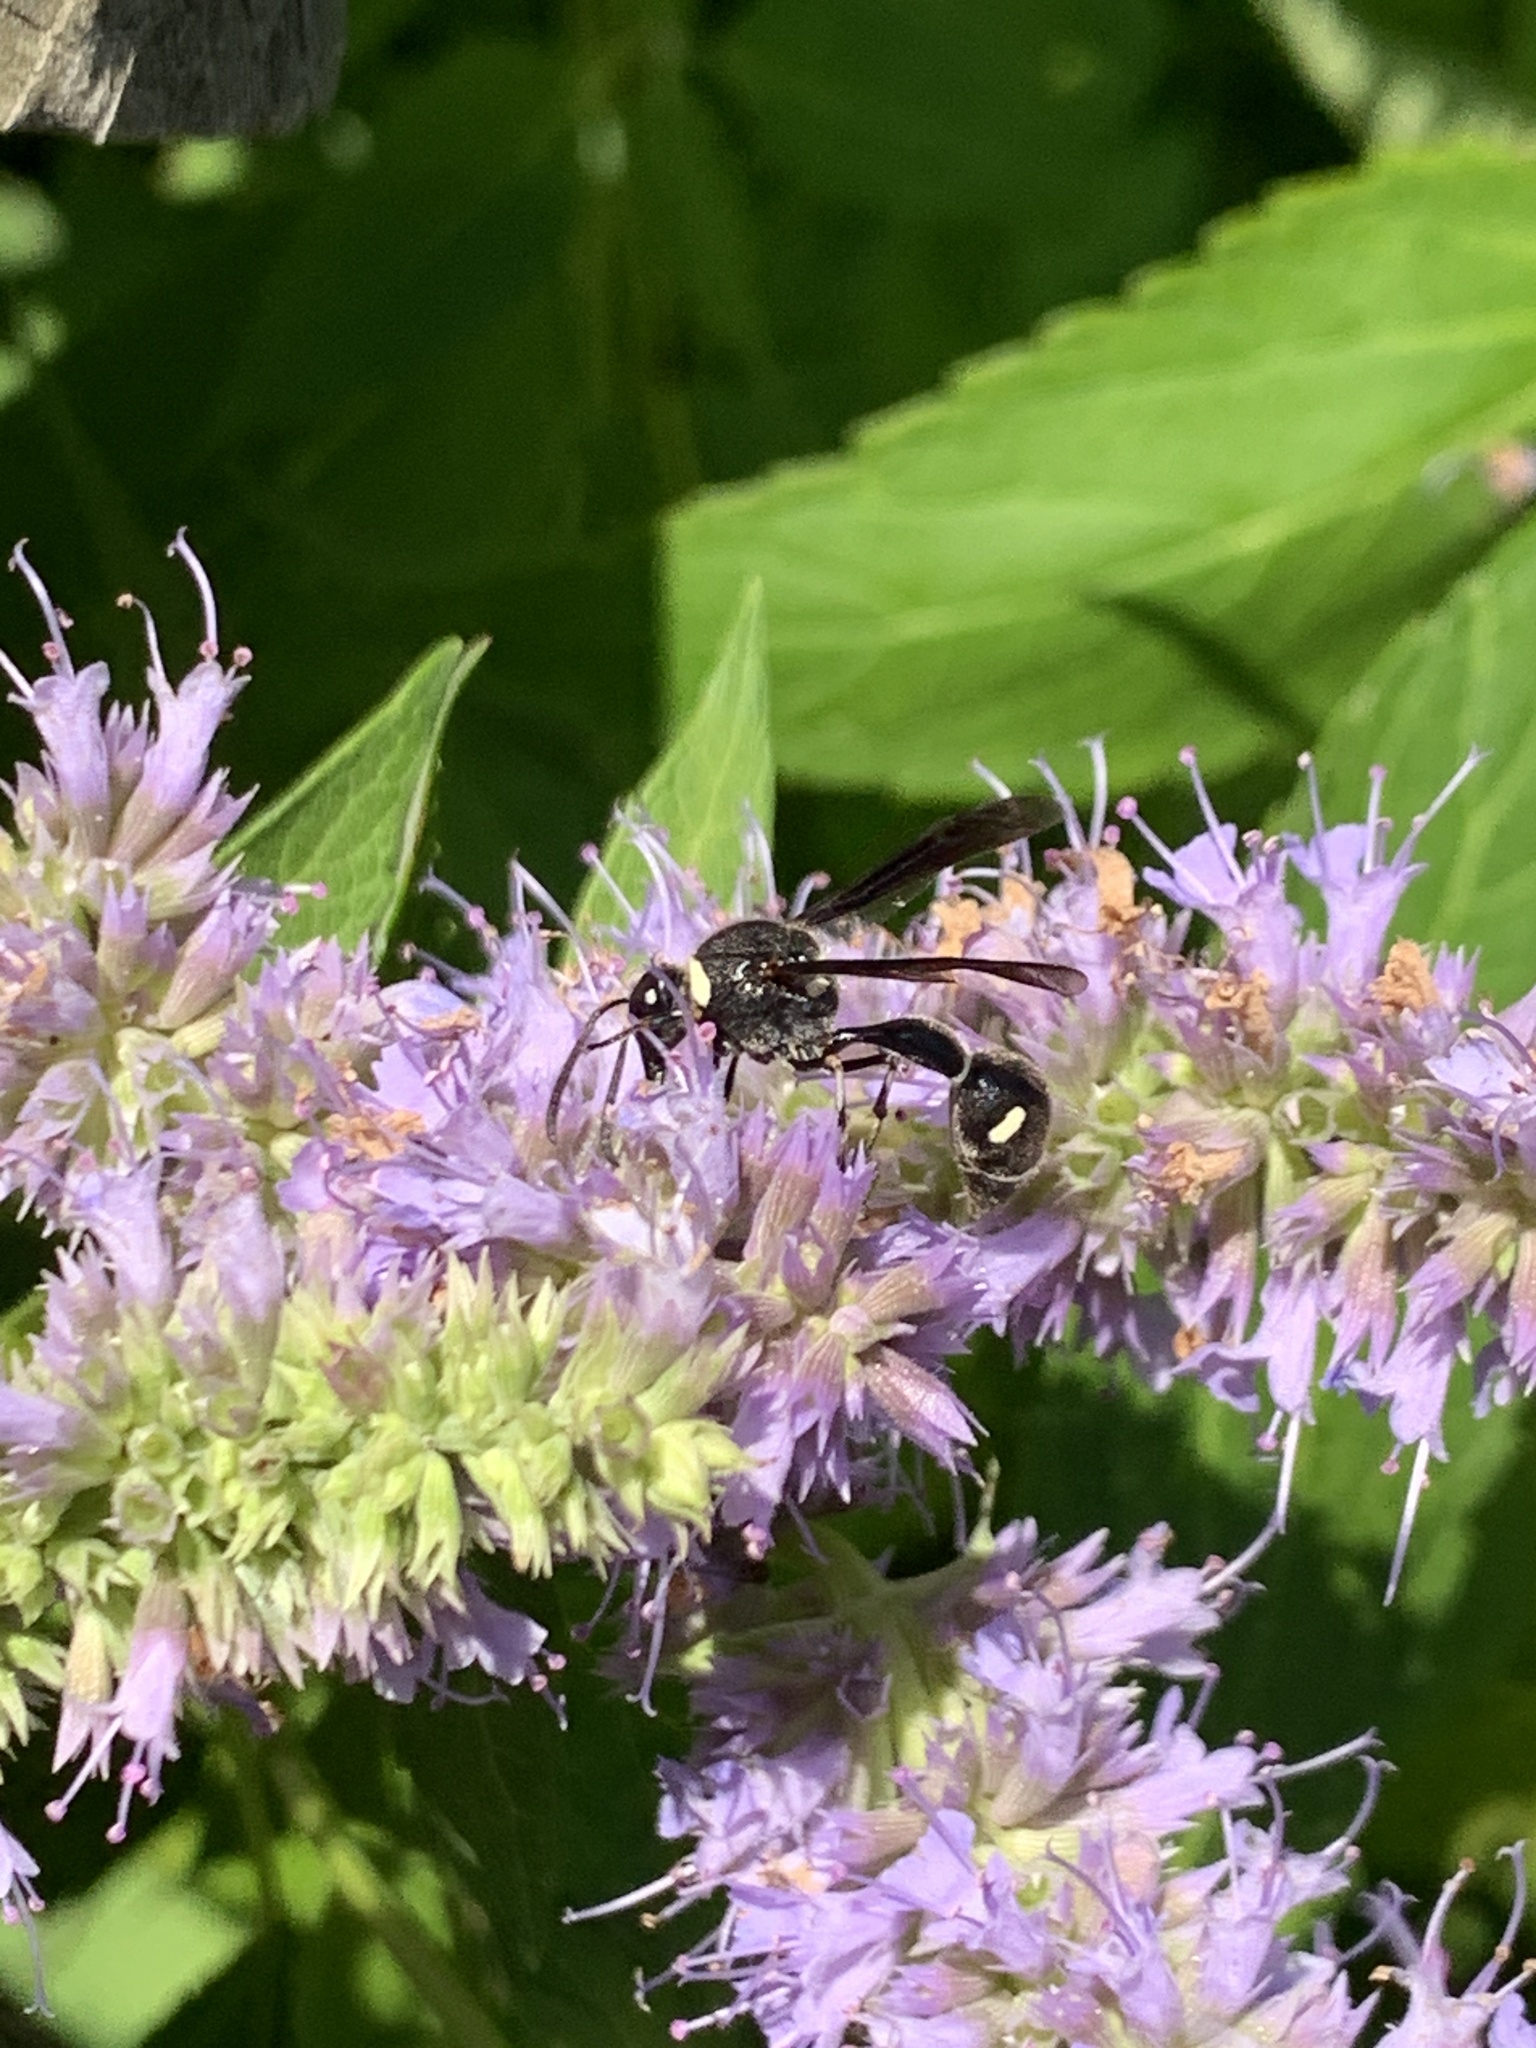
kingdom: Animalia
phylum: Arthropoda
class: Insecta
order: Hymenoptera
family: Vespidae
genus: Eumenes
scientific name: Eumenes fraternus
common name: Fraternal potter wasp
